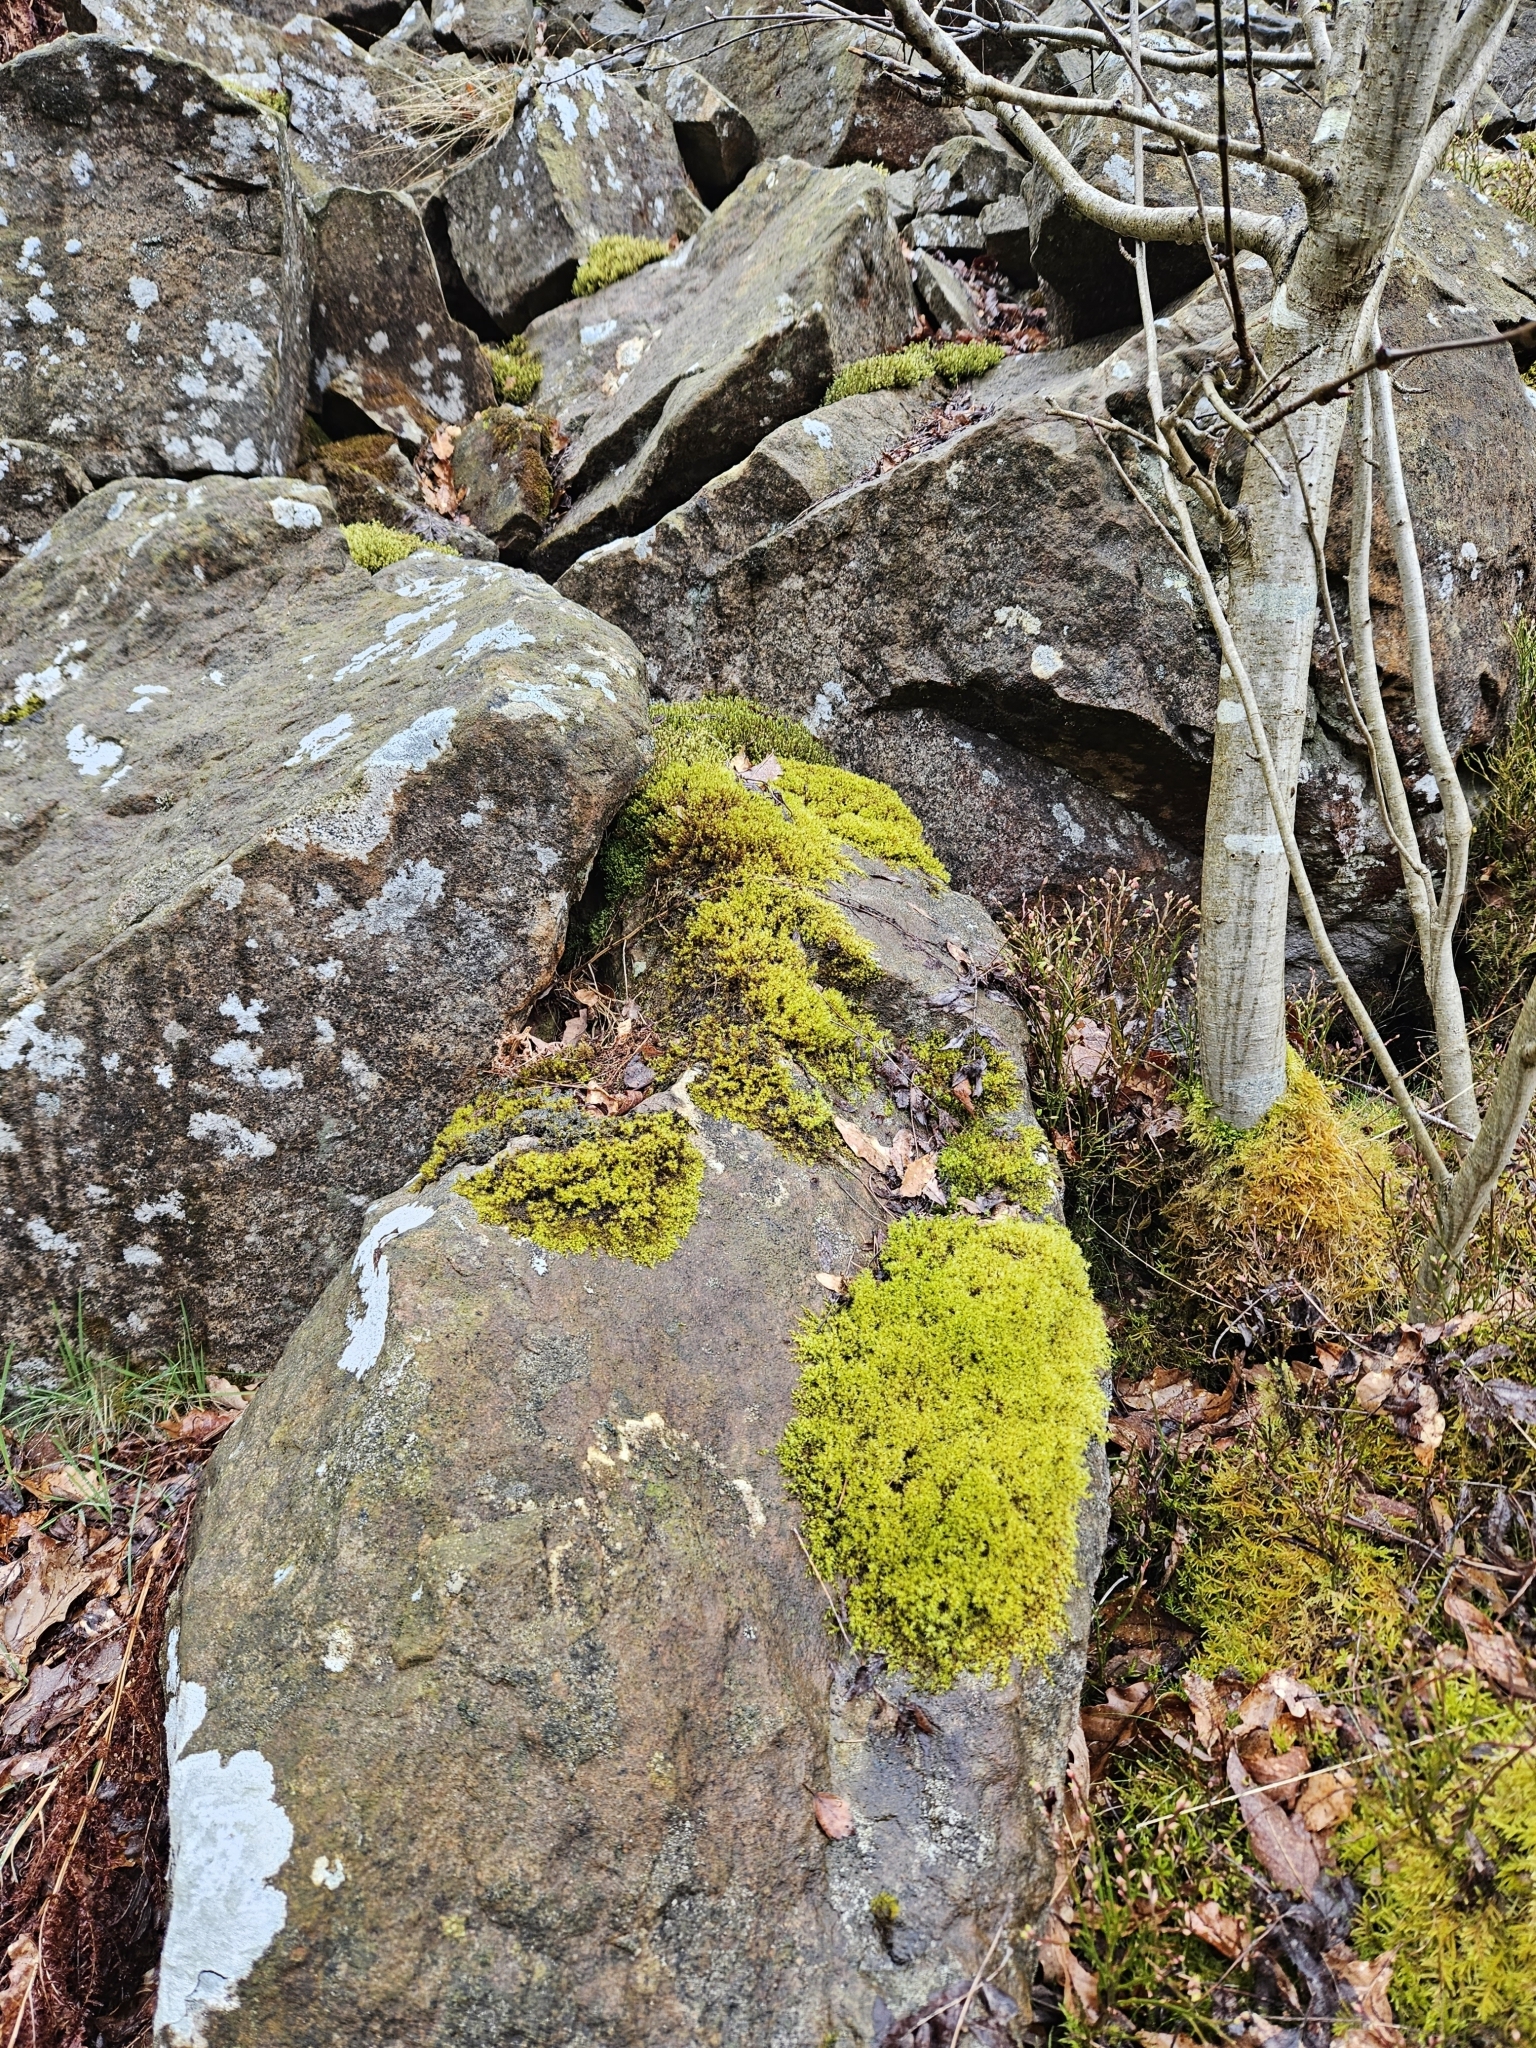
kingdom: Plantae
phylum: Bryophyta
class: Bryopsida
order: Grimmiales
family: Grimmiaceae
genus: Dilutineuron
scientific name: Dilutineuron fasciculare
